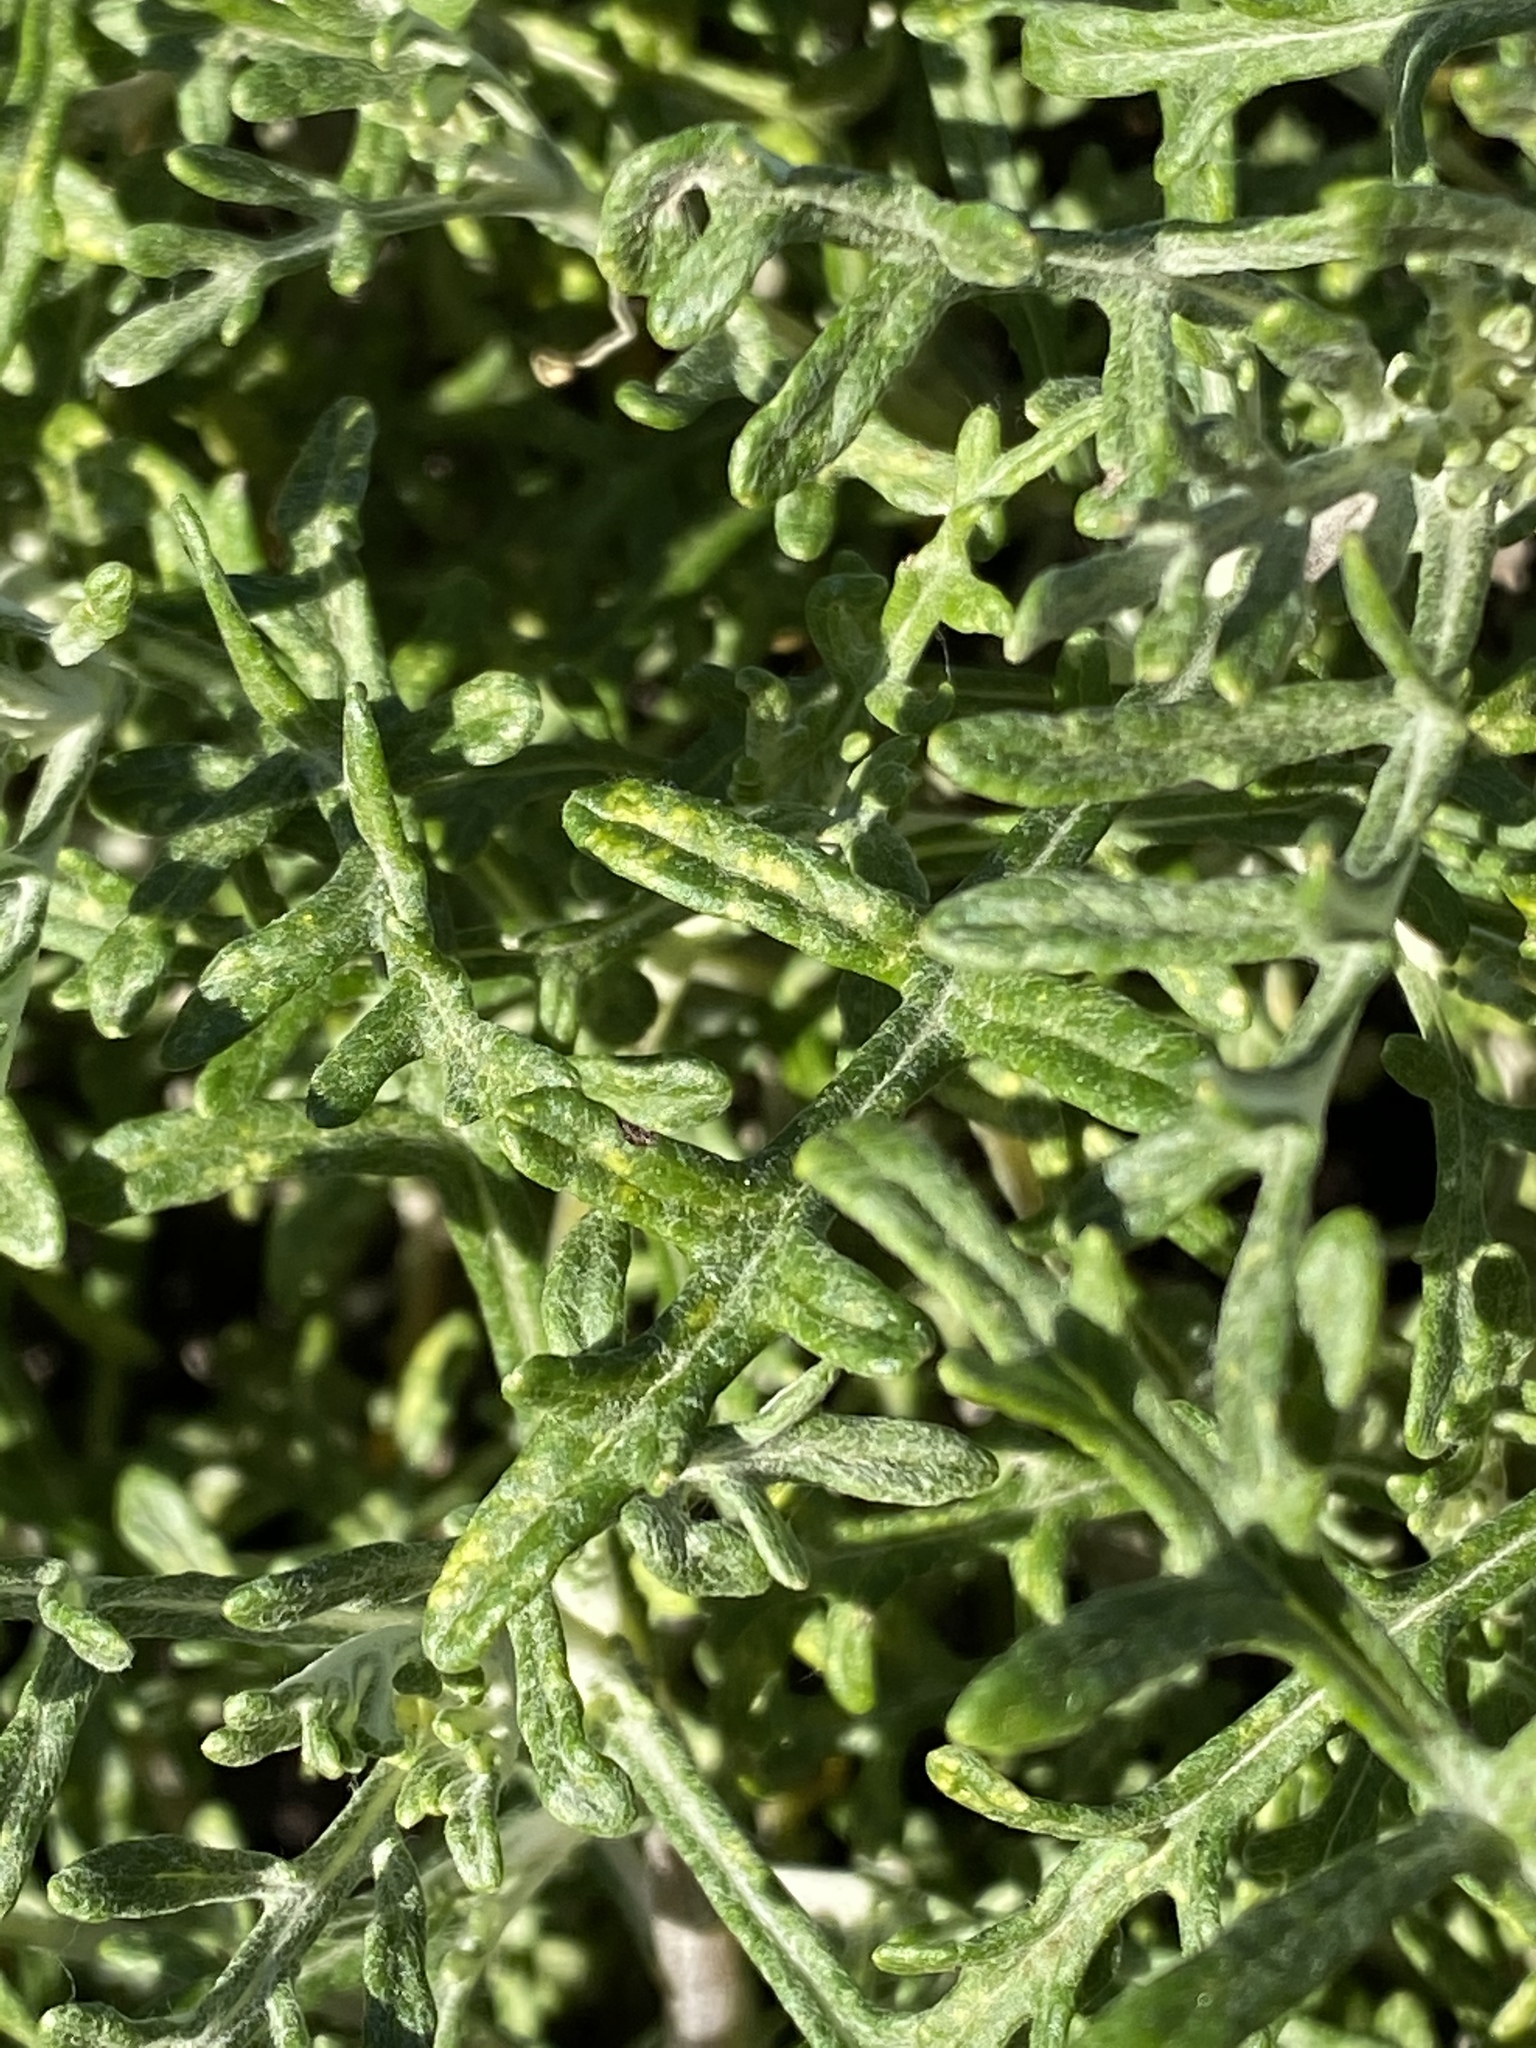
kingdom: Plantae
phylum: Tracheophyta
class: Magnoliopsida
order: Asterales
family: Asteraceae
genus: Eriophyllum
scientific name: Eriophyllum staechadifolium
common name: Lizardtail
